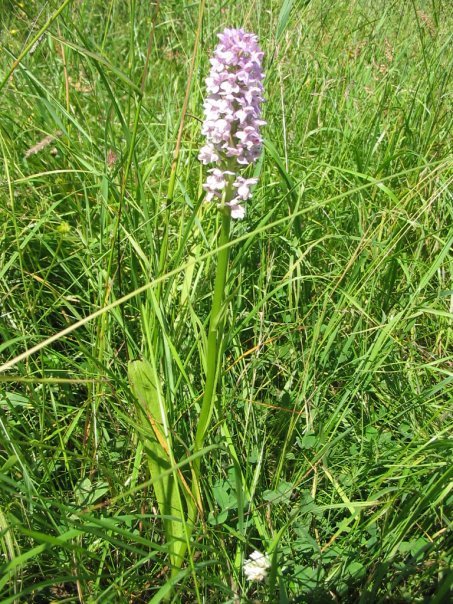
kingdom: Plantae
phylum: Tracheophyta
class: Liliopsida
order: Asparagales
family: Orchidaceae
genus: Gymnadenia
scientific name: Gymnadenia conopsea
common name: Fragrant orchid
